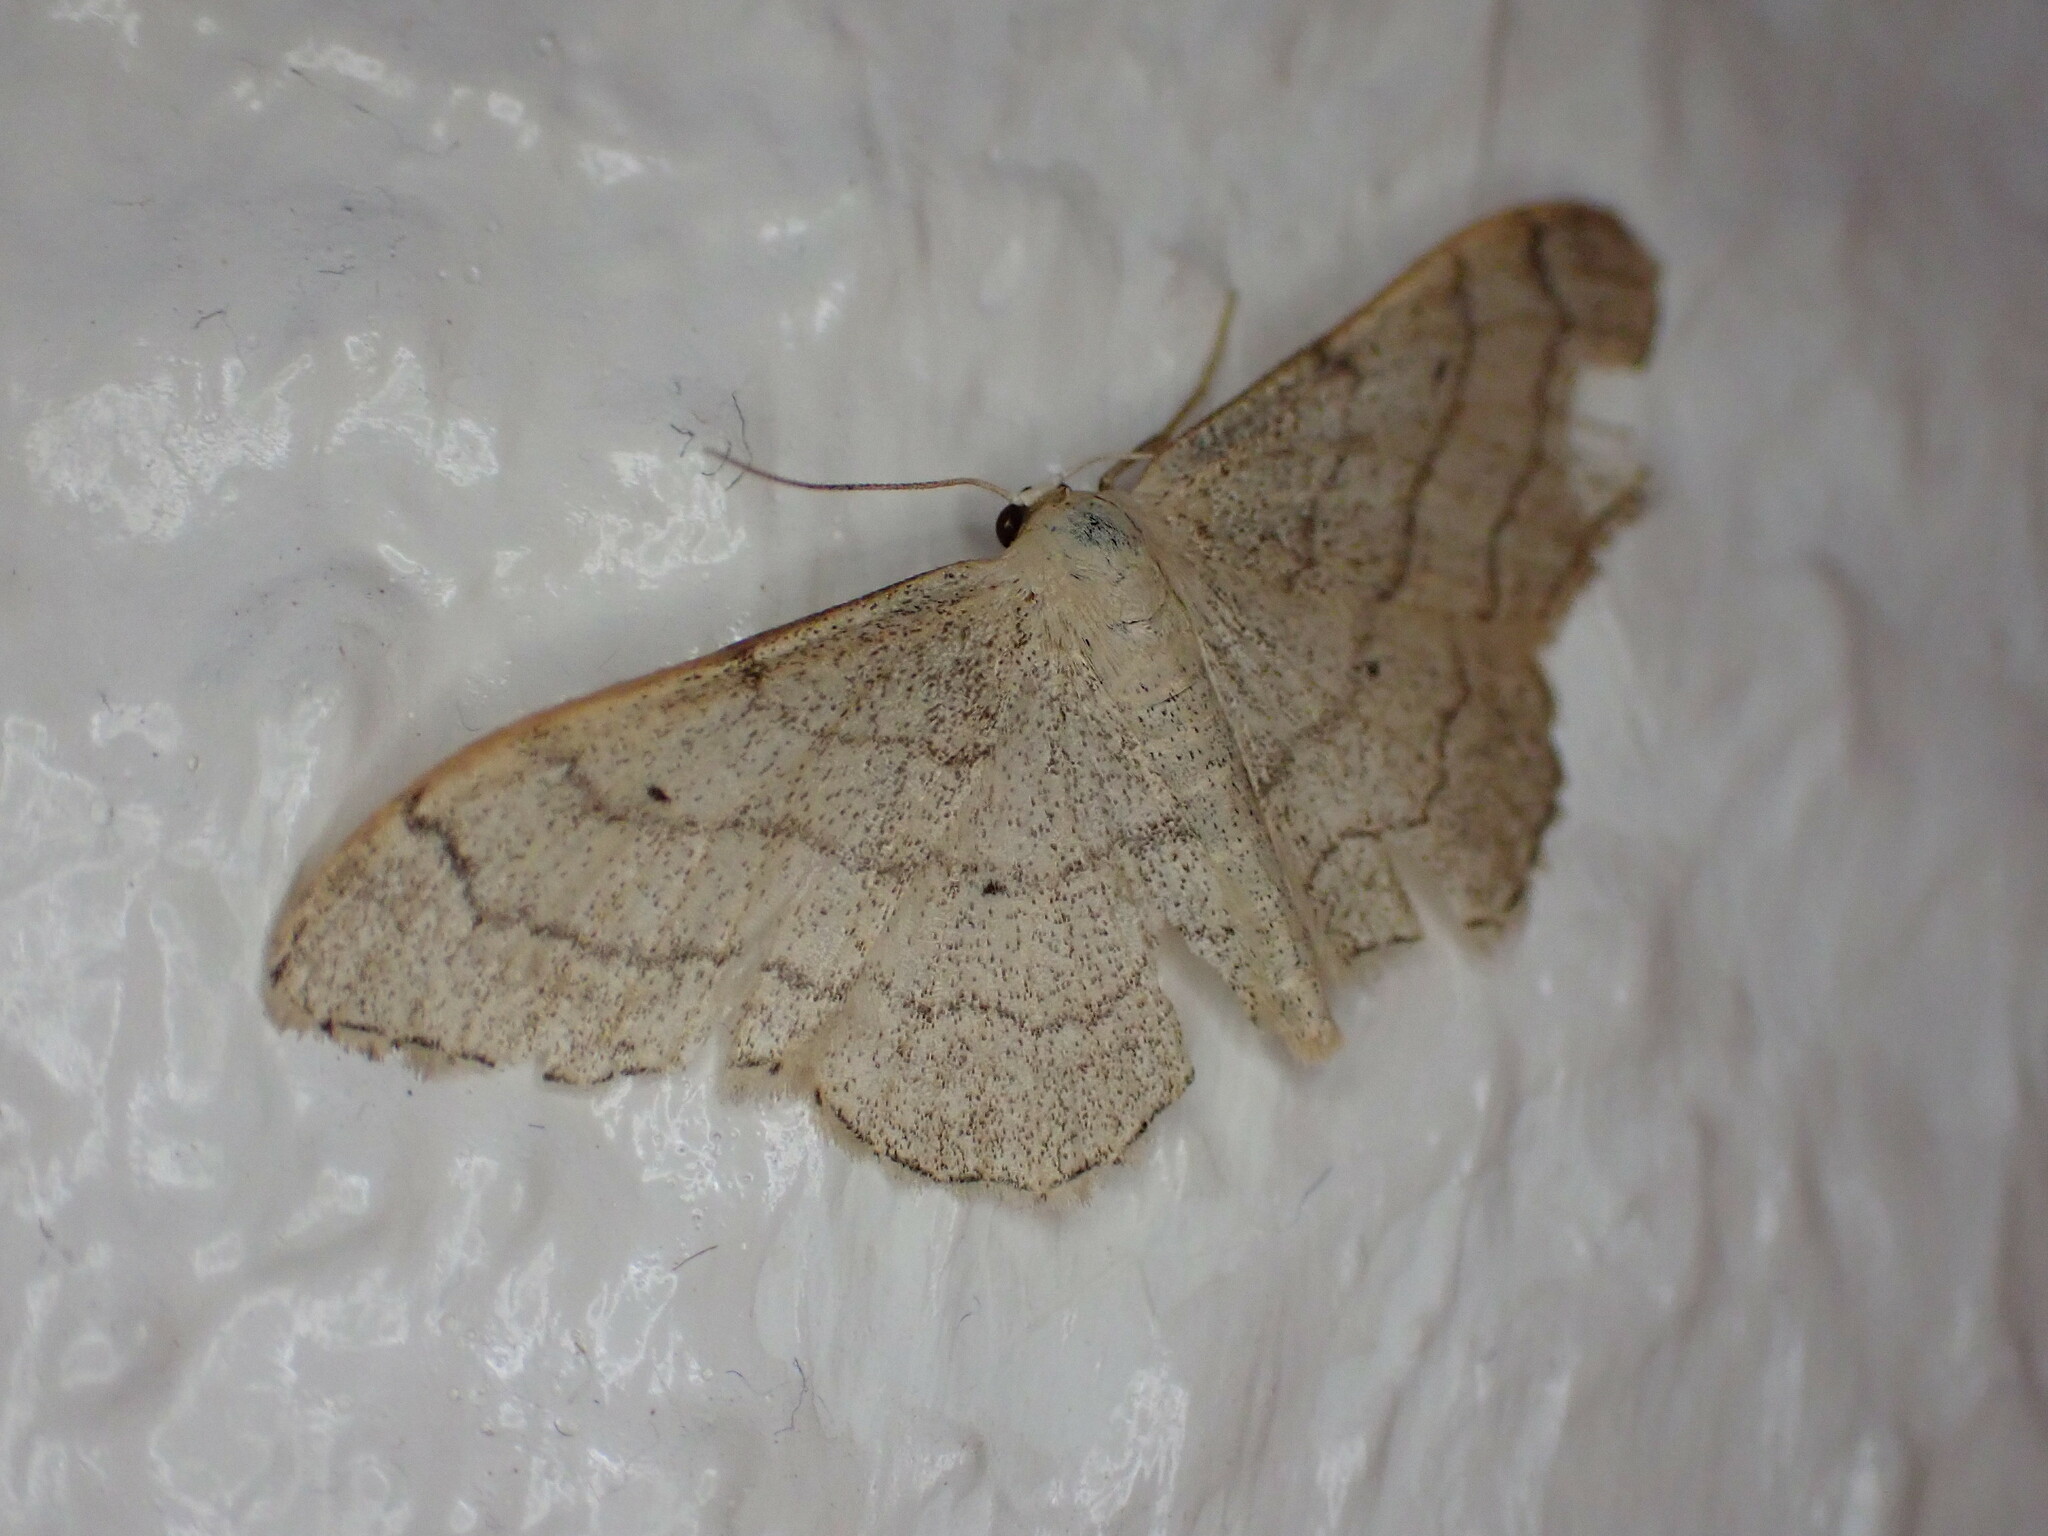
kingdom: Animalia
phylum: Arthropoda
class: Insecta
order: Lepidoptera
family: Geometridae
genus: Idaea
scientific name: Idaea aversata
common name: Riband wave
